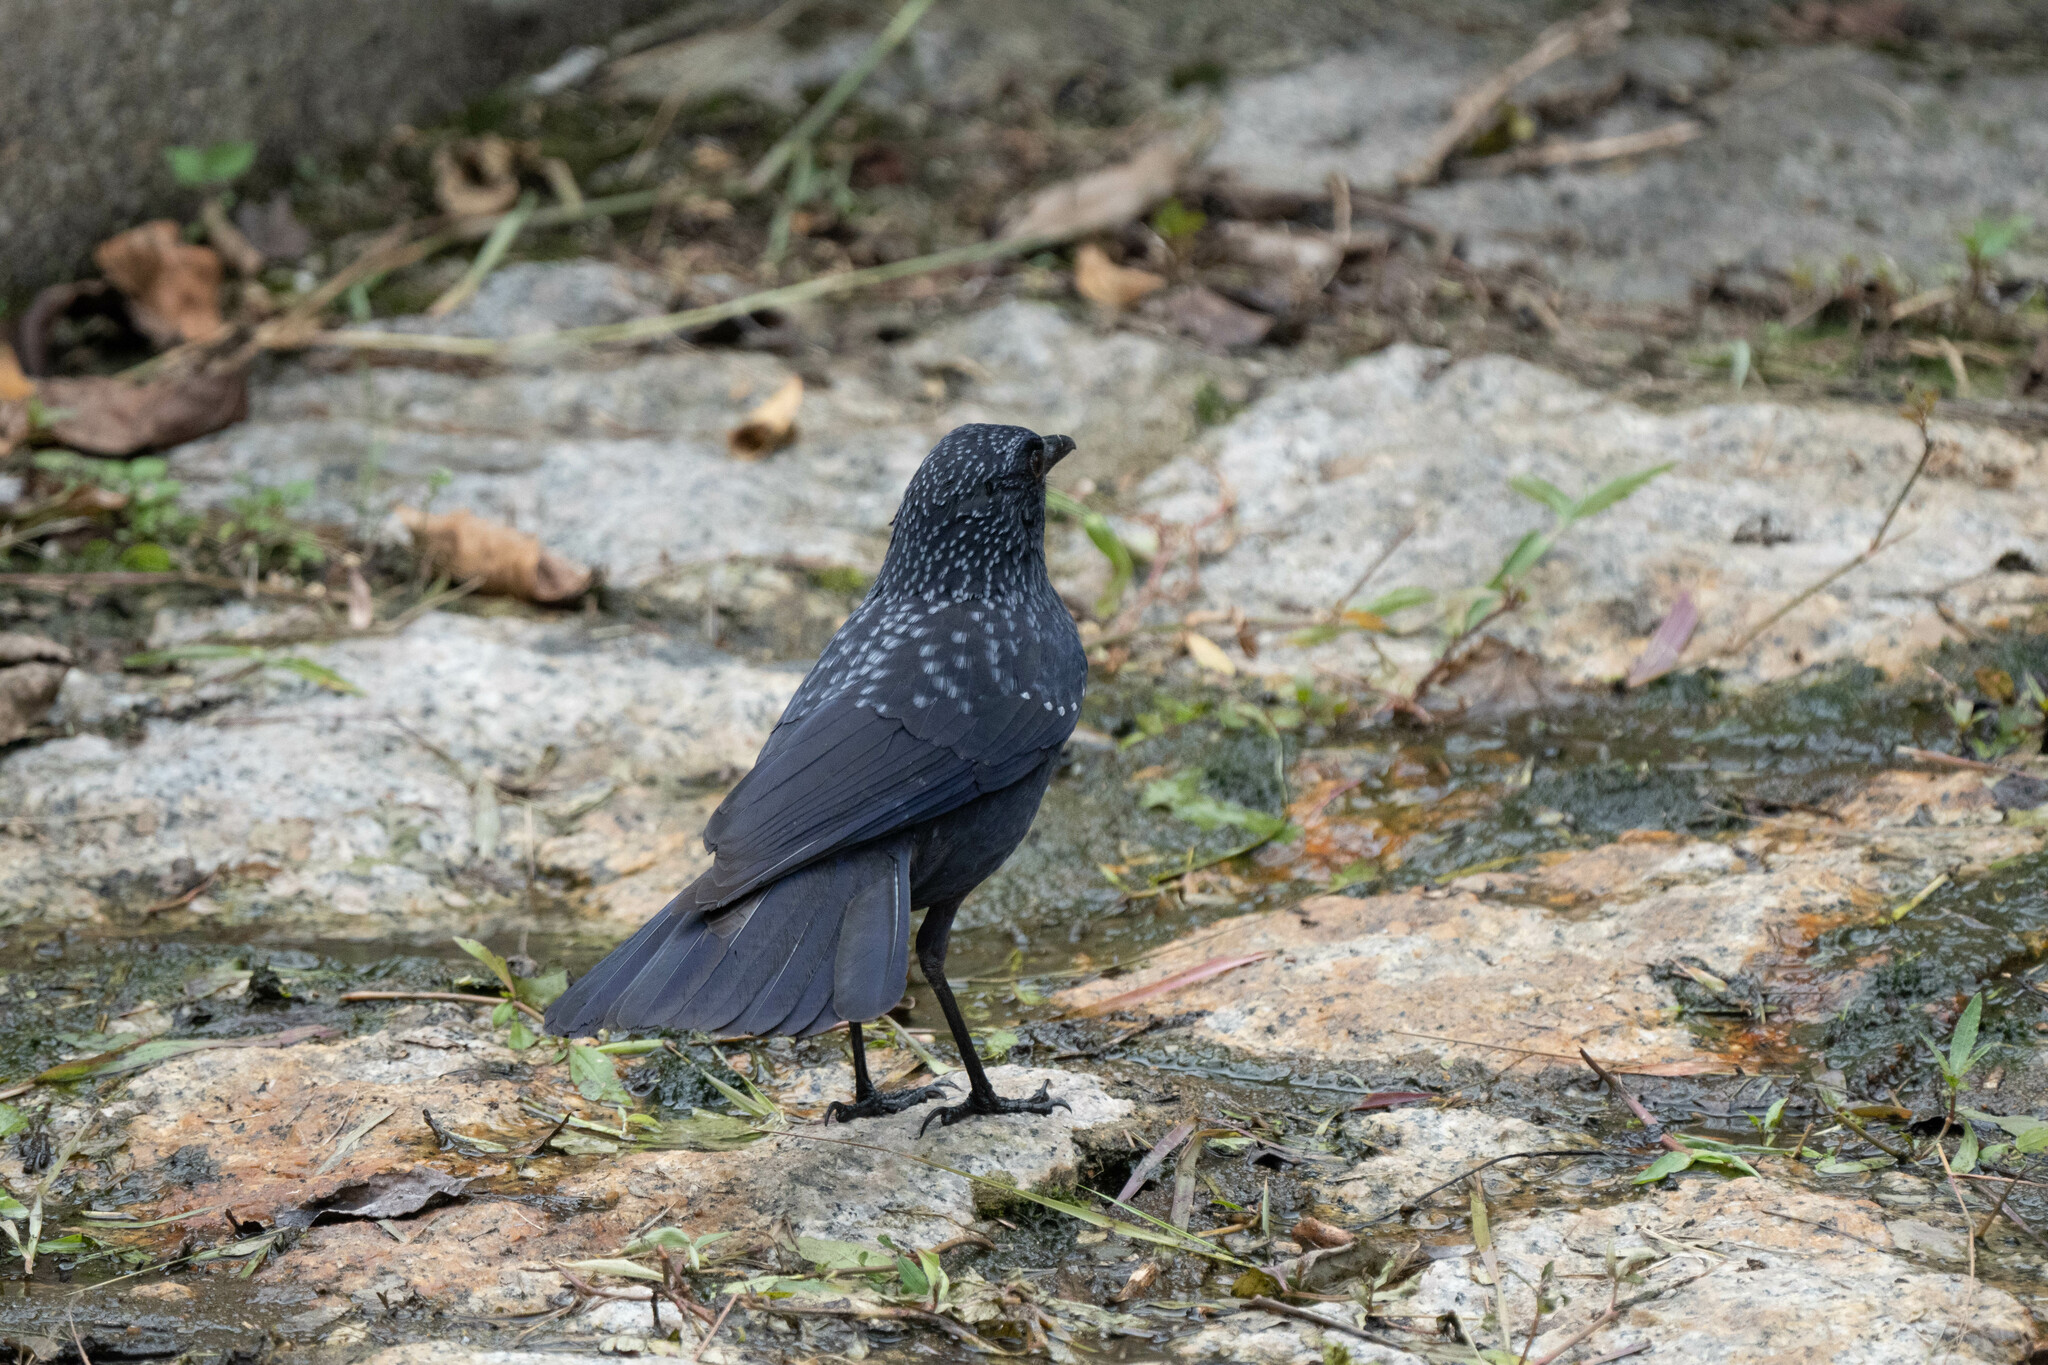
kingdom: Animalia
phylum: Chordata
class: Aves
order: Passeriformes
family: Muscicapidae
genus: Myophonus
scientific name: Myophonus caeruleus
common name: Blue whistling-thrush
